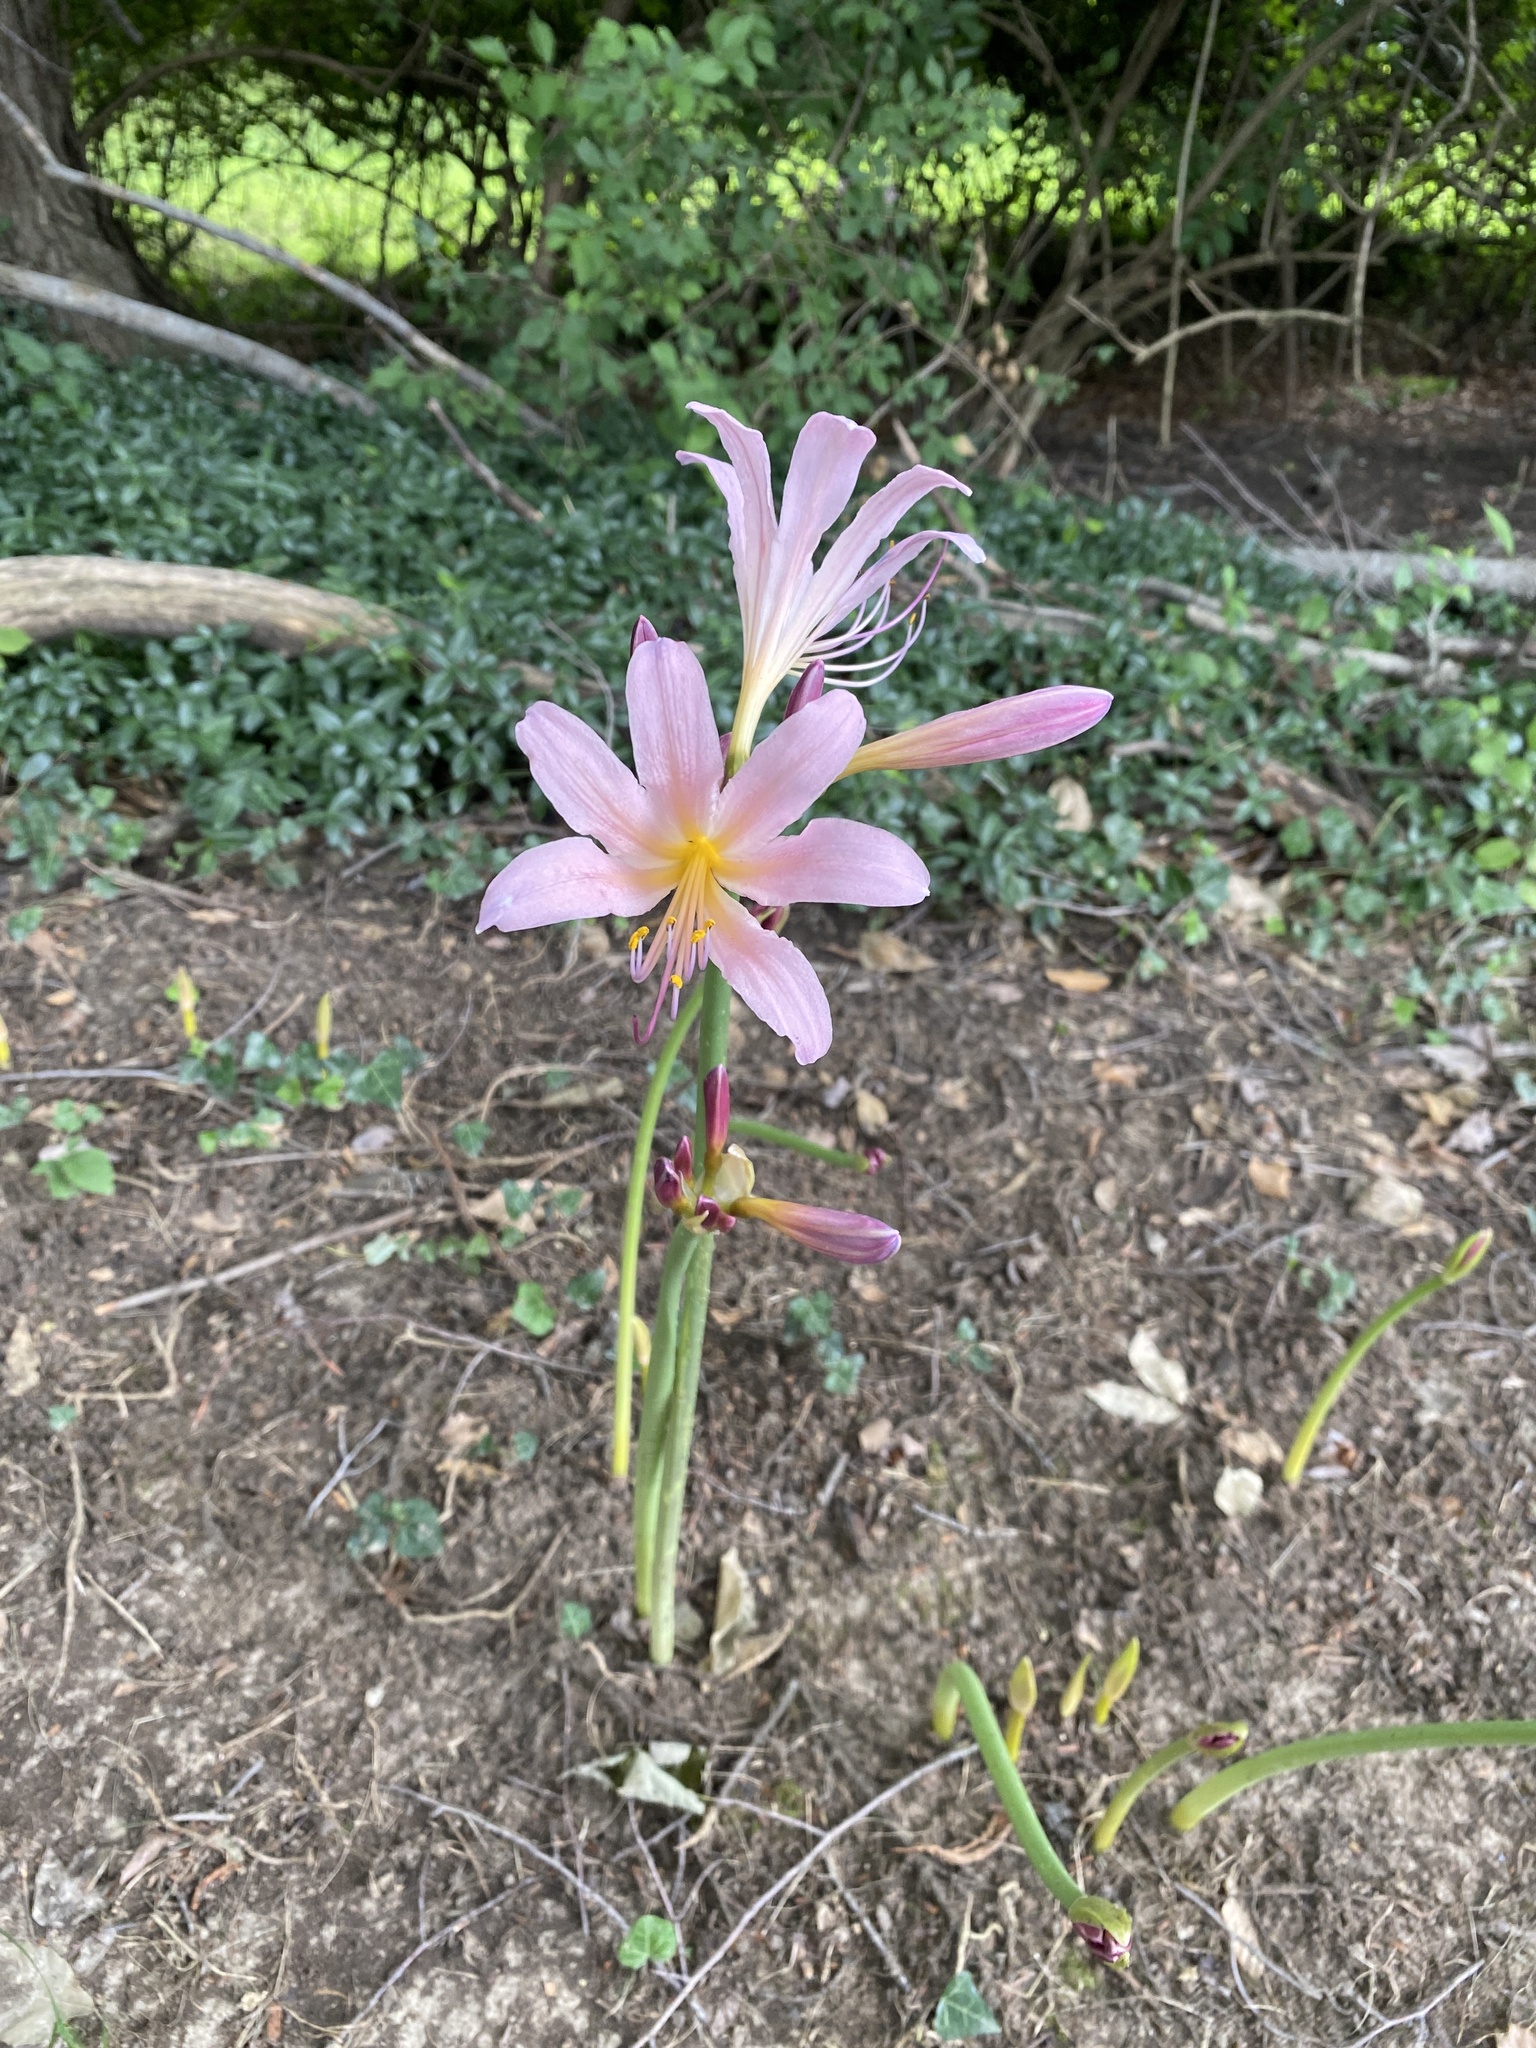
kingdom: Plantae
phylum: Tracheophyta
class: Liliopsida
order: Asparagales
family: Amaryllidaceae
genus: Lycoris
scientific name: Lycoris squamigera
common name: Magic-lily
